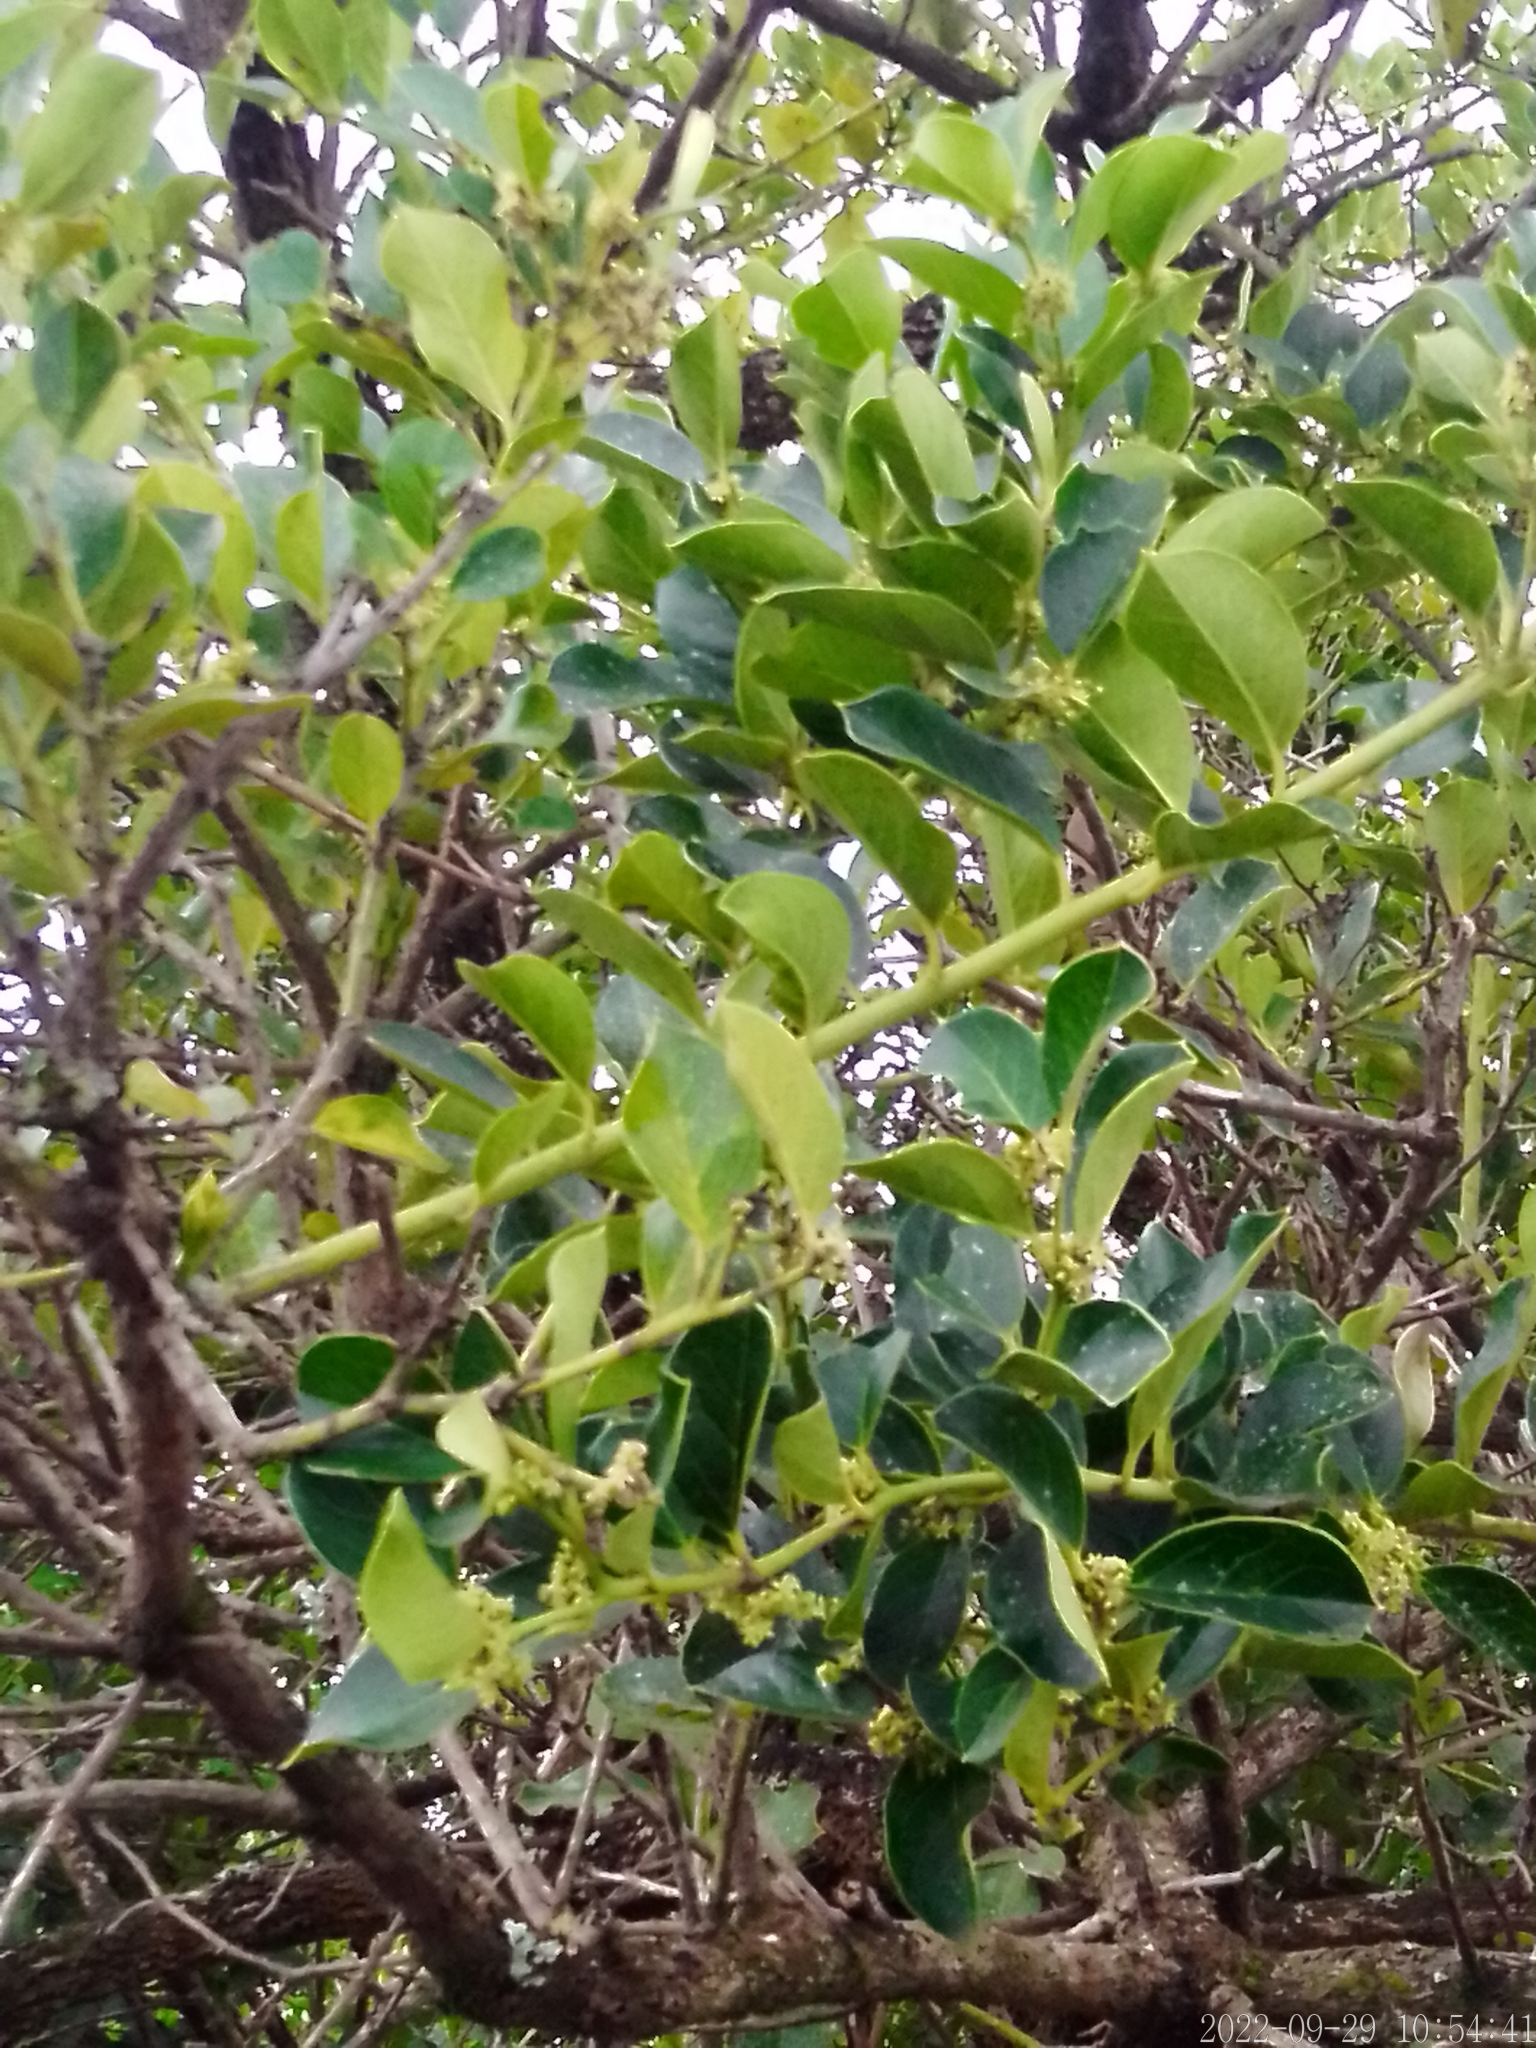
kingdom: Plantae
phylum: Tracheophyta
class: Magnoliopsida
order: Cardiopteridales
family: Cardiopteridaceae
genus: Citronella
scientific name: Citronella mucronata
